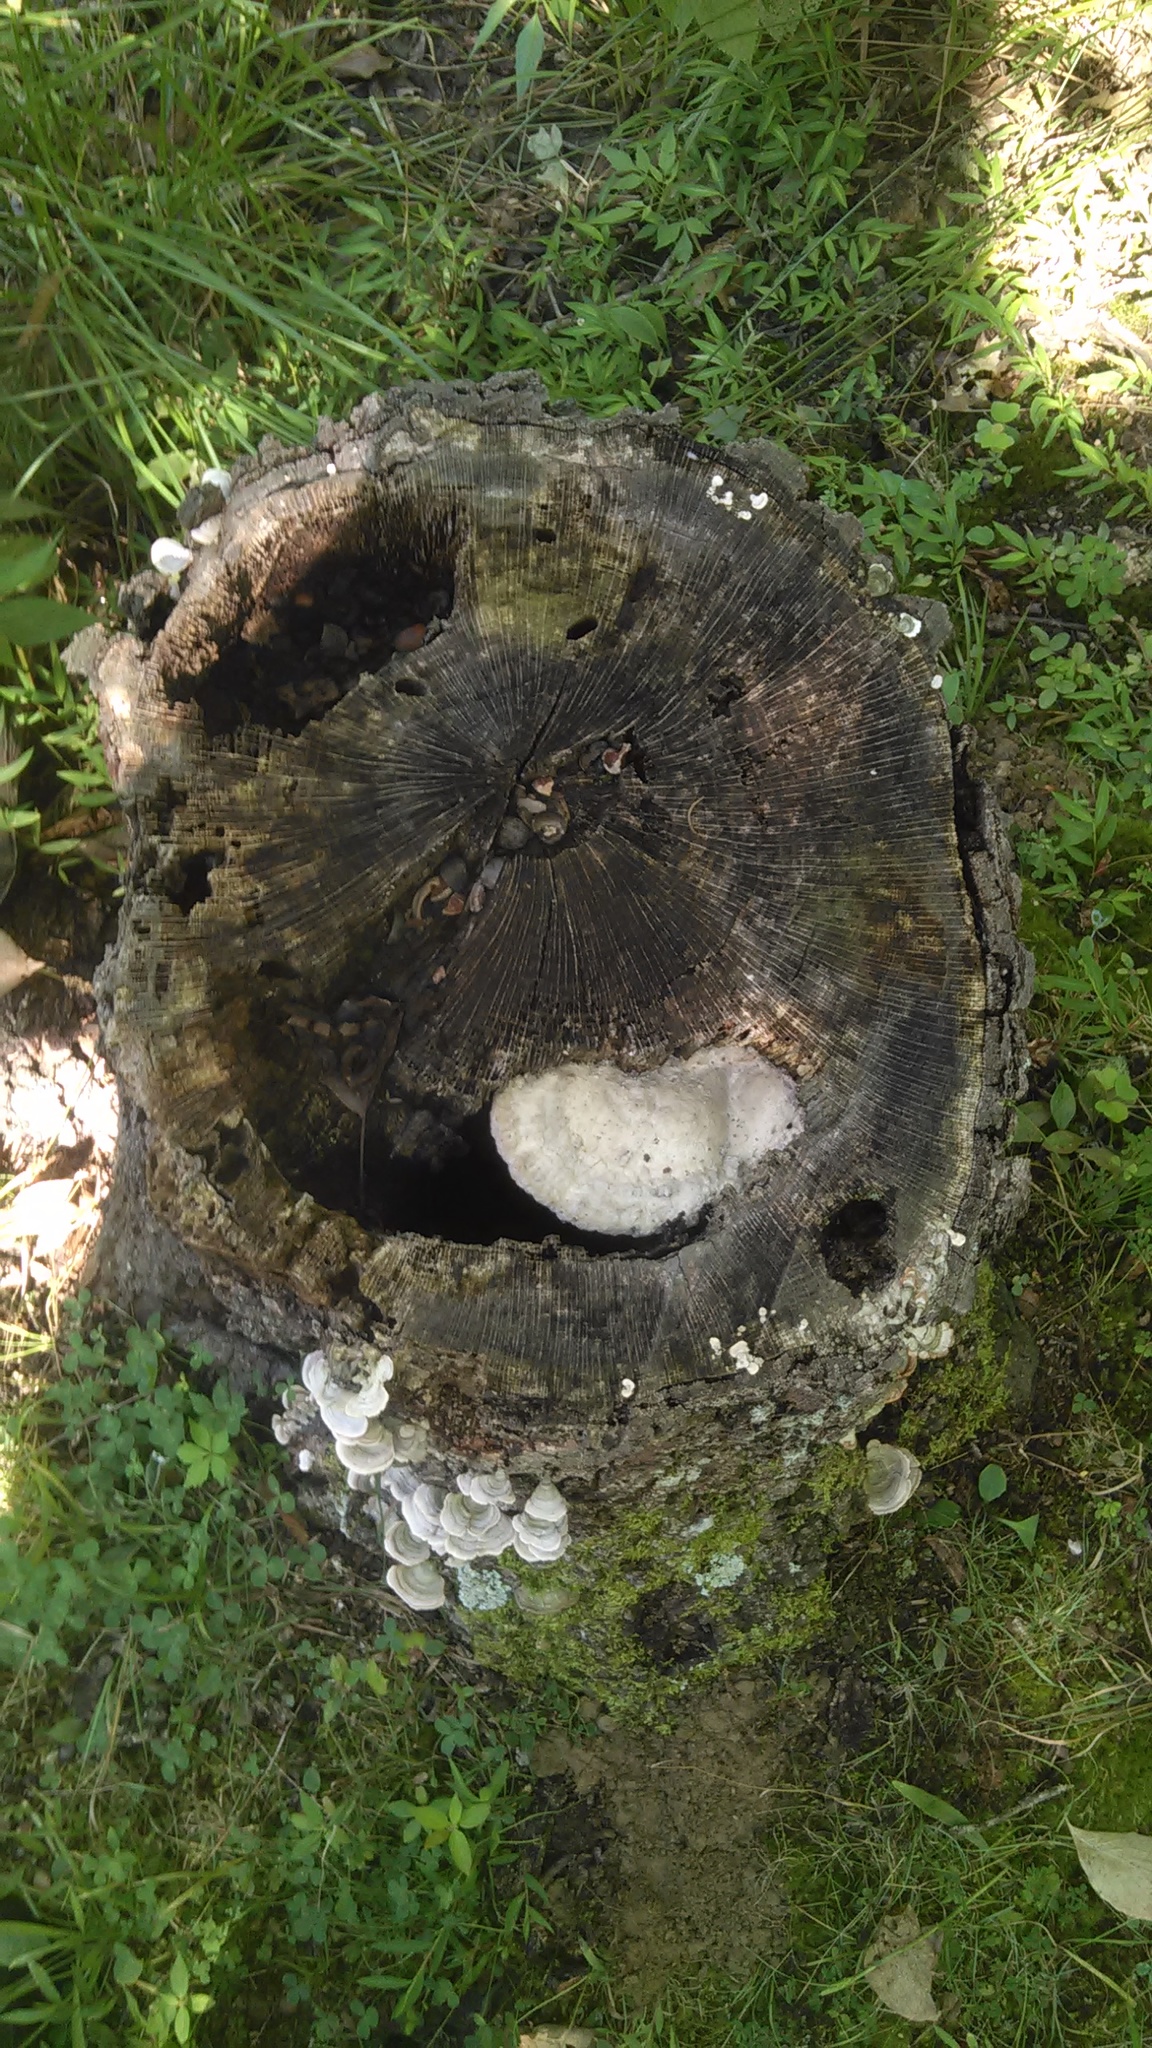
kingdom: Fungi
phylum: Basidiomycota
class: Agaricomycetes
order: Polyporales
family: Fomitopsidaceae
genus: Niveoporofomes
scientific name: Niveoporofomes spraguei
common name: Green cheese polypore
